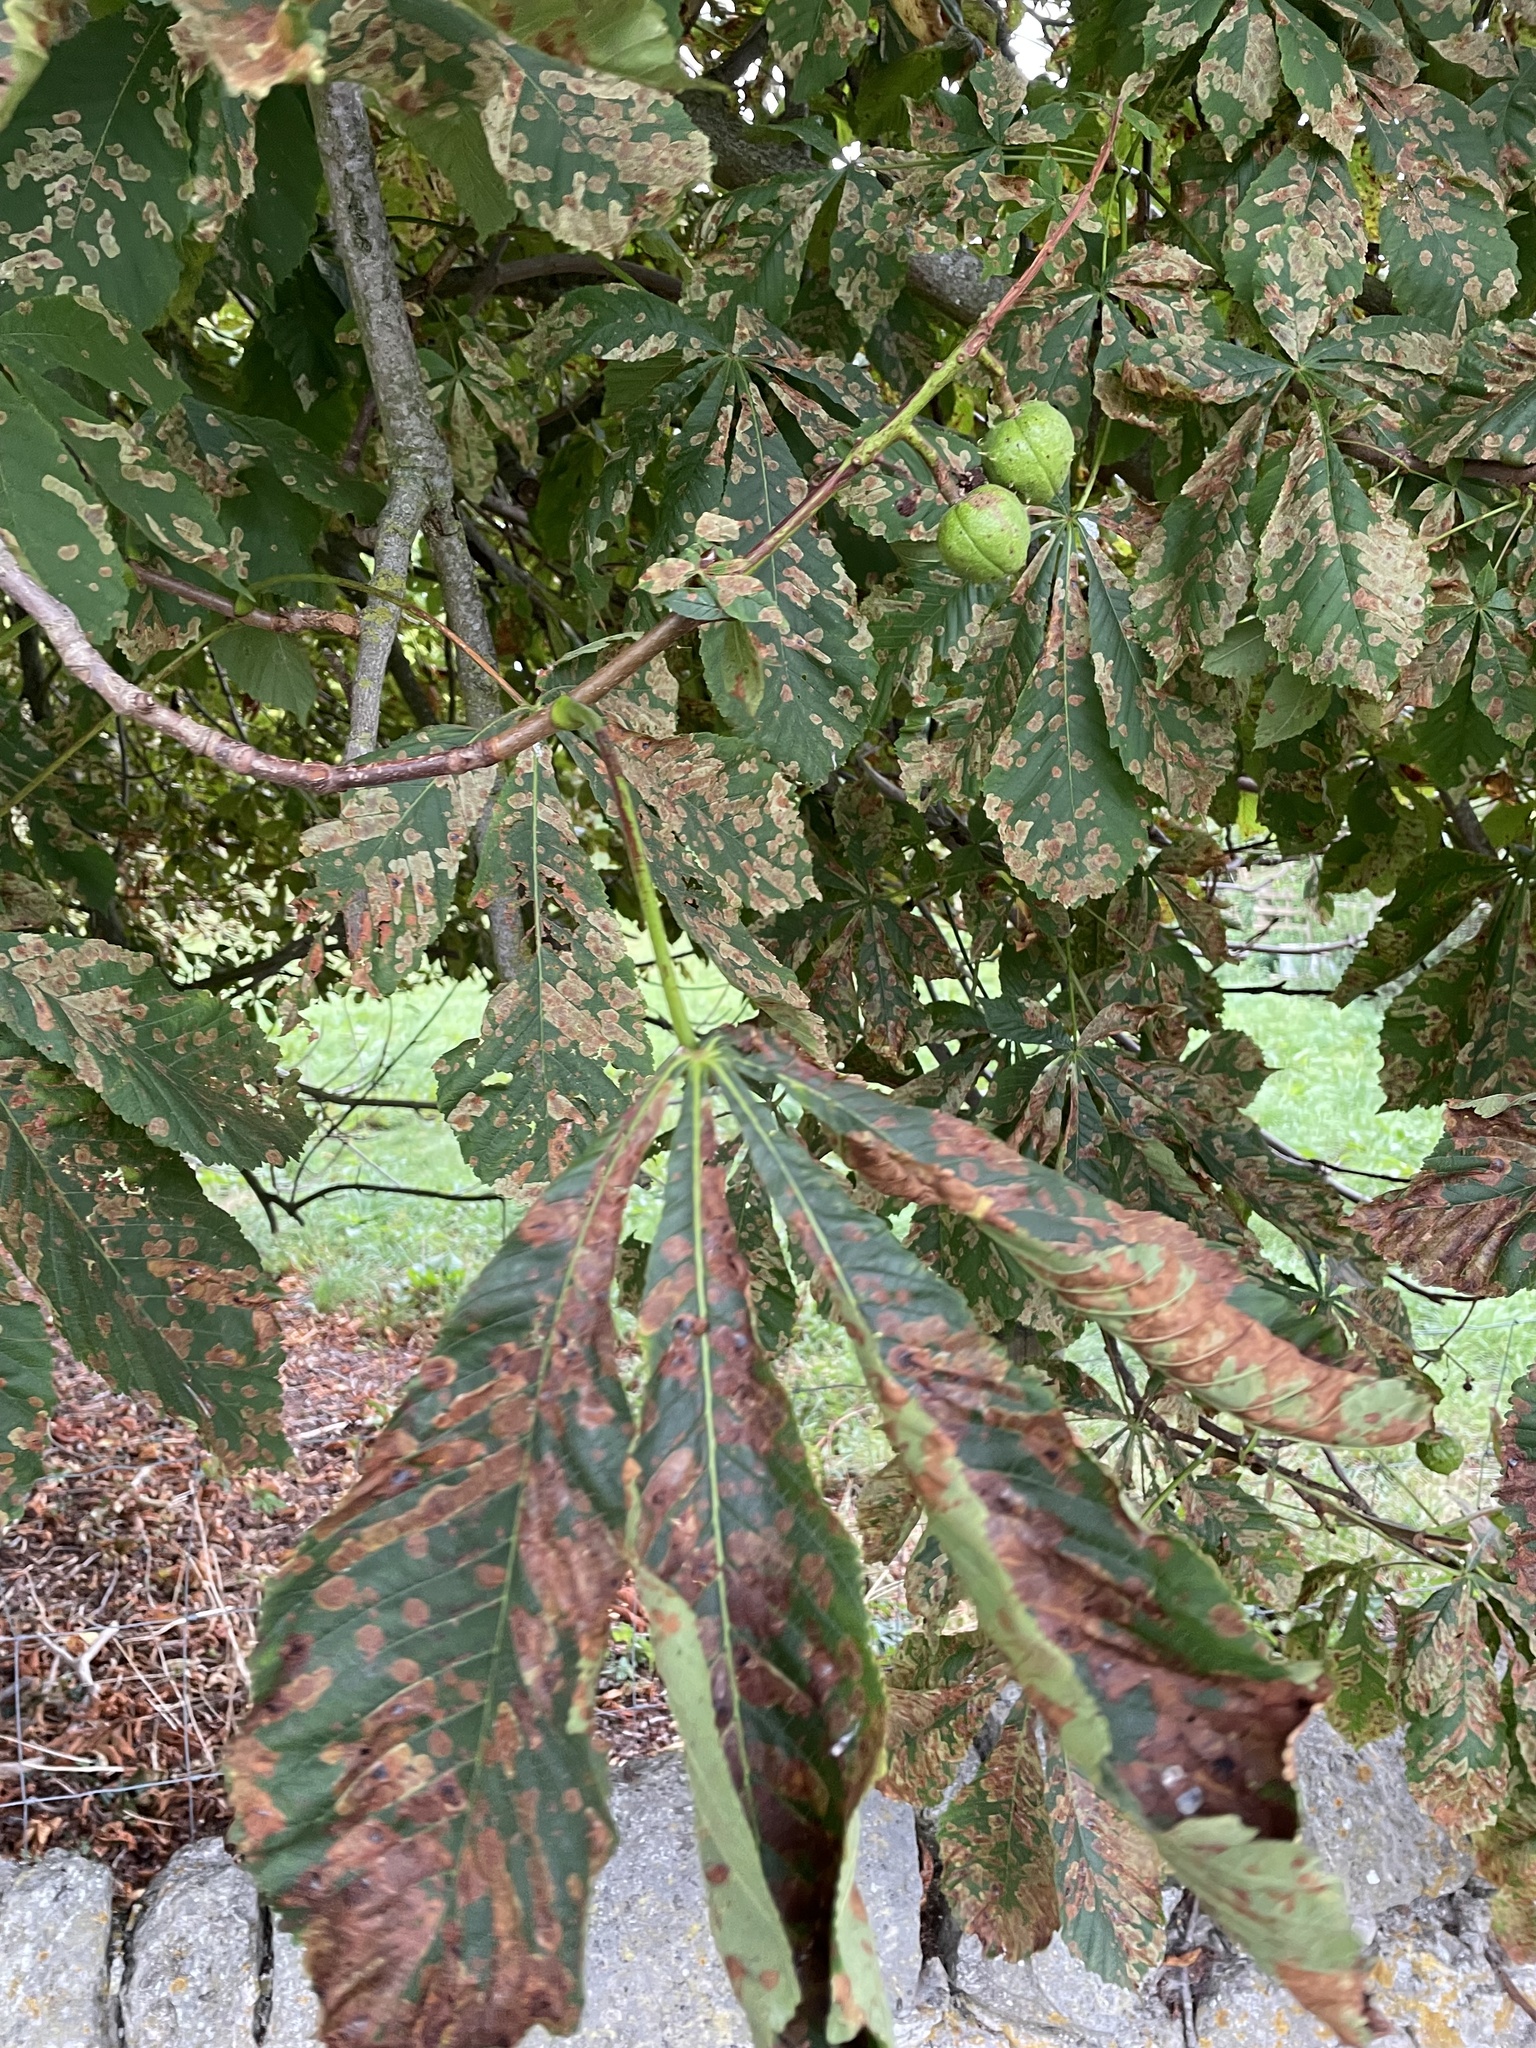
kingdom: Plantae
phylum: Tracheophyta
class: Magnoliopsida
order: Sapindales
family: Sapindaceae
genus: Aesculus
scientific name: Aesculus hippocastanum
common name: Horse-chestnut
